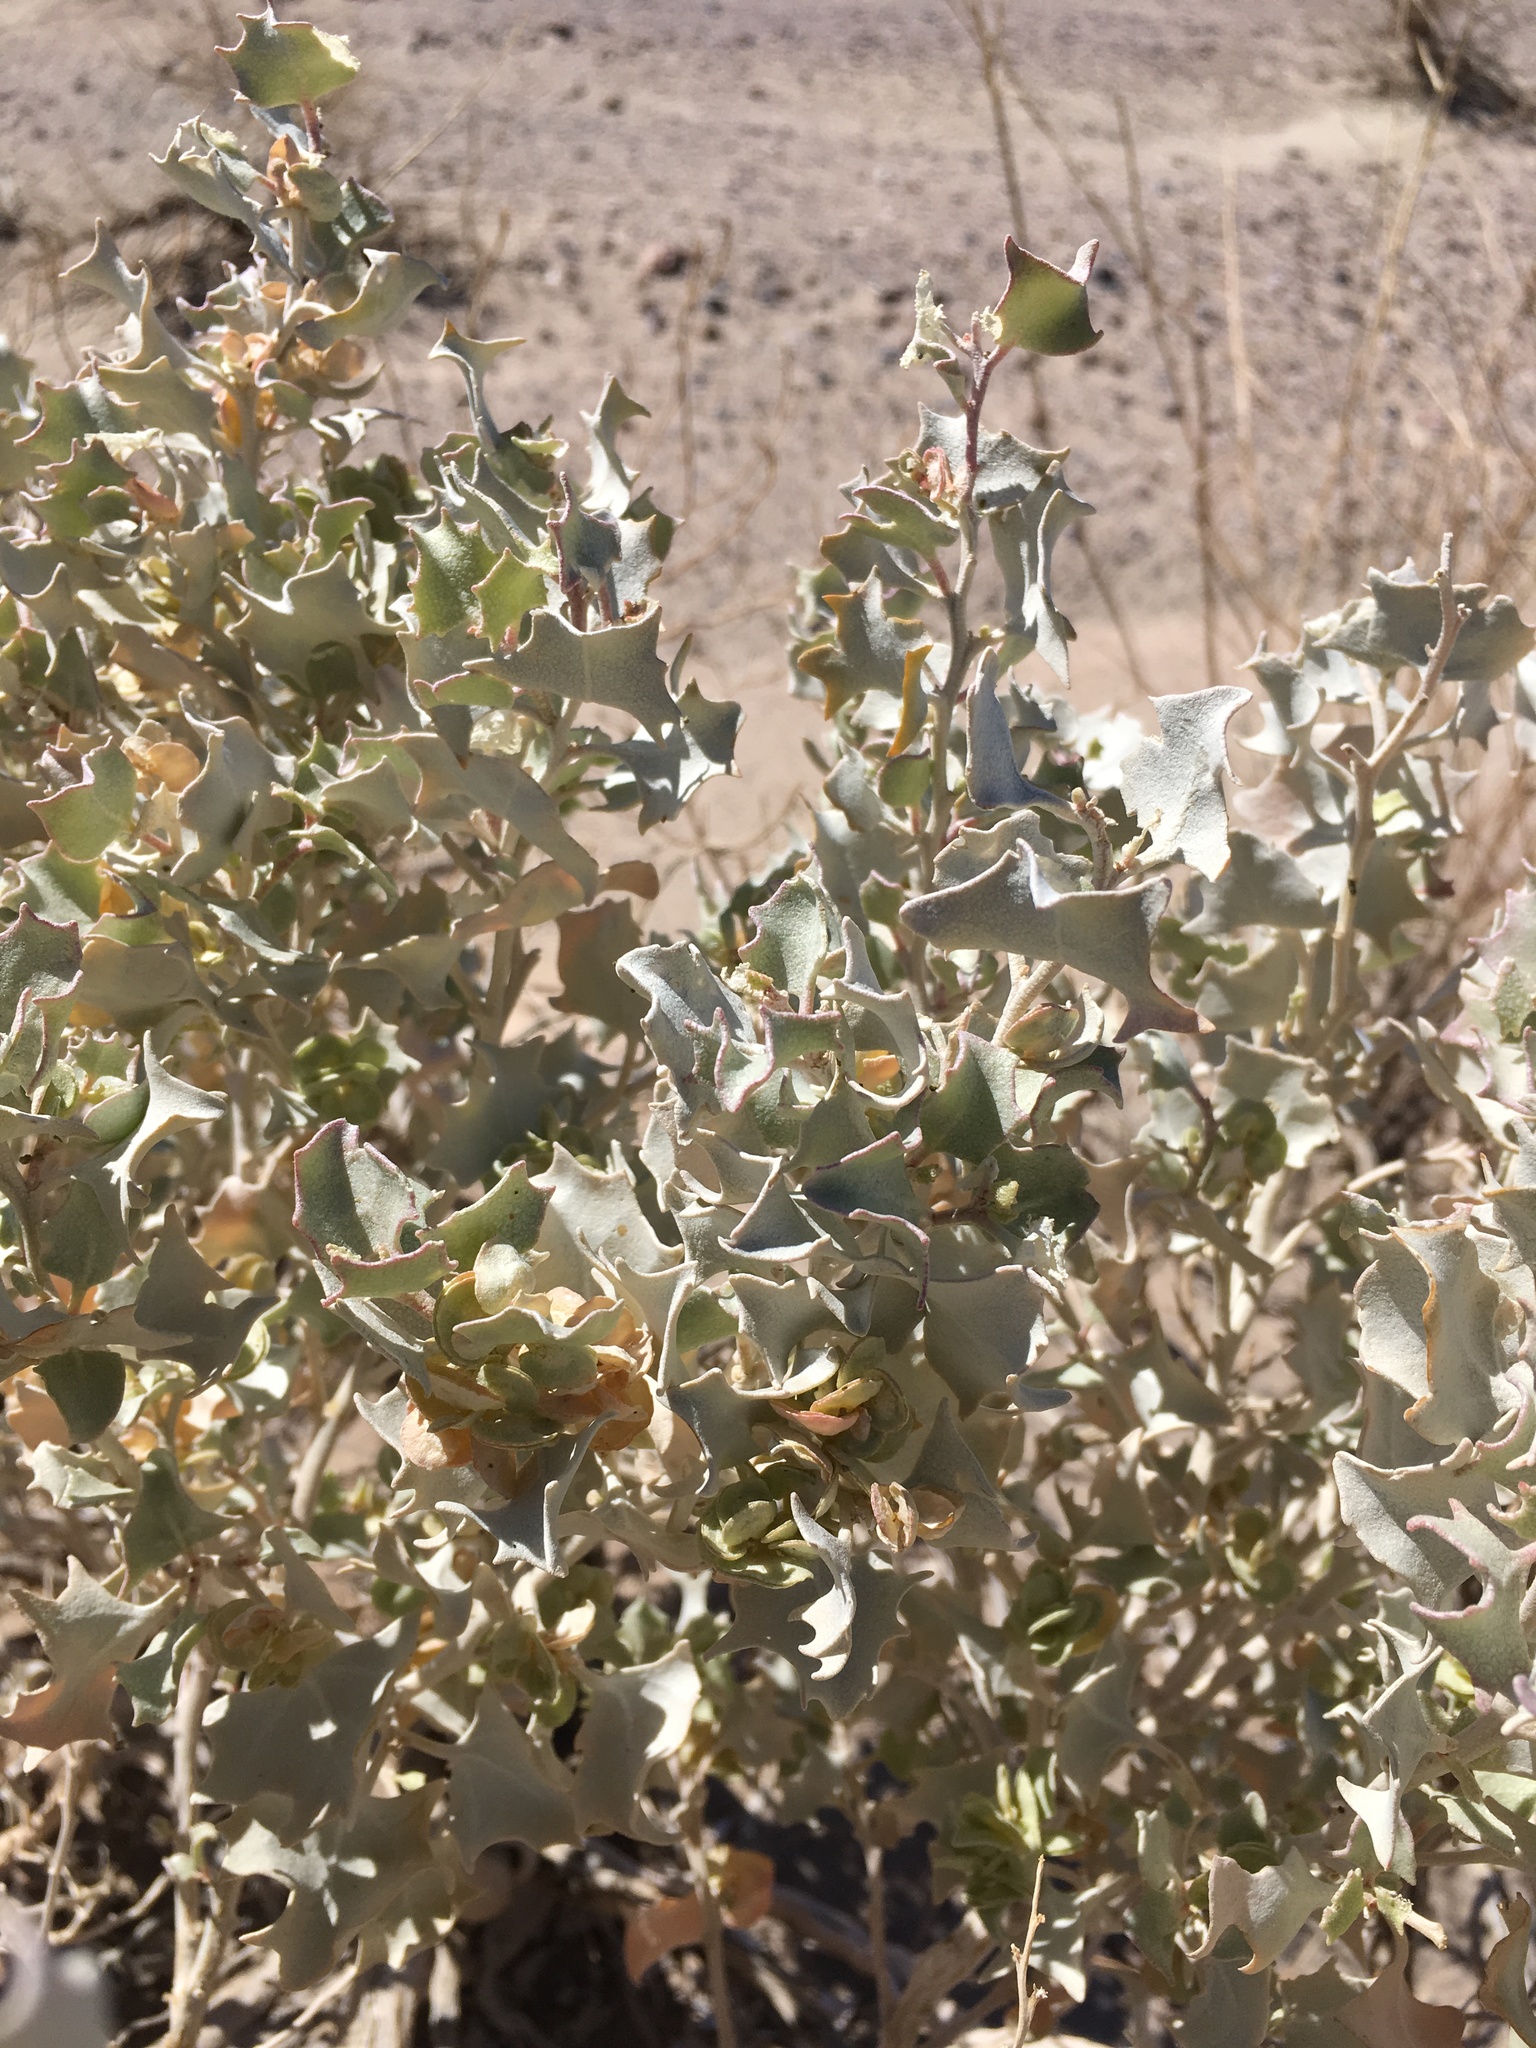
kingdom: Plantae
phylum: Tracheophyta
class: Magnoliopsida
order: Caryophyllales
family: Amaranthaceae
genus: Atriplex
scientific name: Atriplex hymenelytra
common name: Desert-holly
